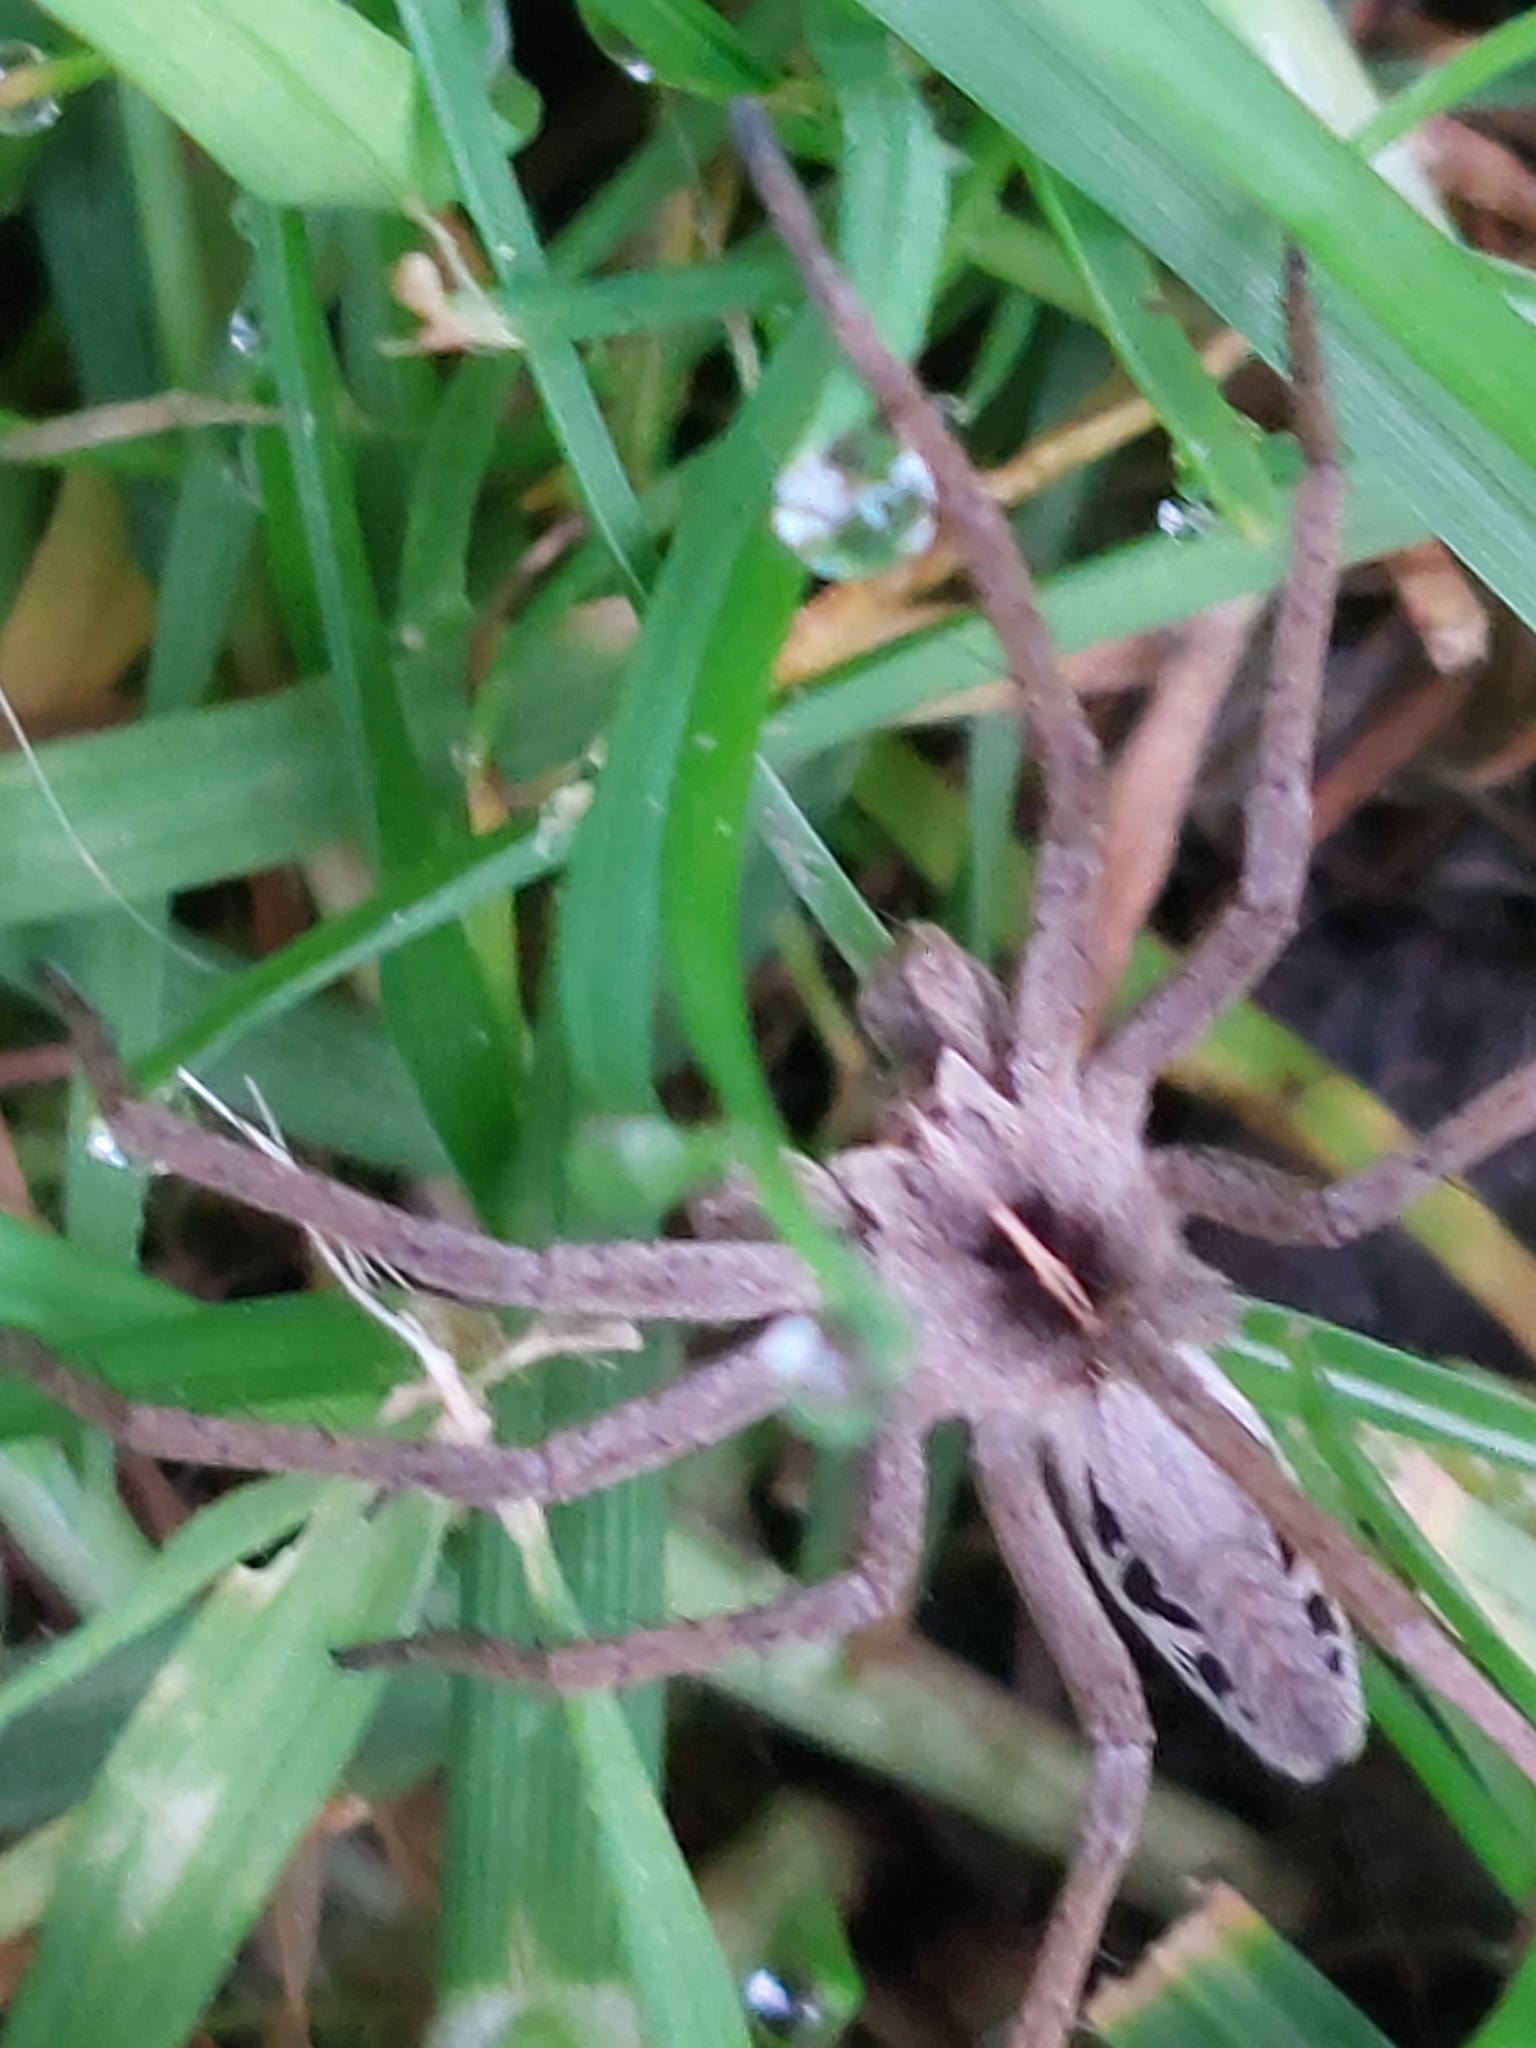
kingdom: Animalia
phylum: Arthropoda
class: Arachnida
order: Araneae
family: Pisauridae
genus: Pisaura
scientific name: Pisaura mirabilis
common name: Tent spider
